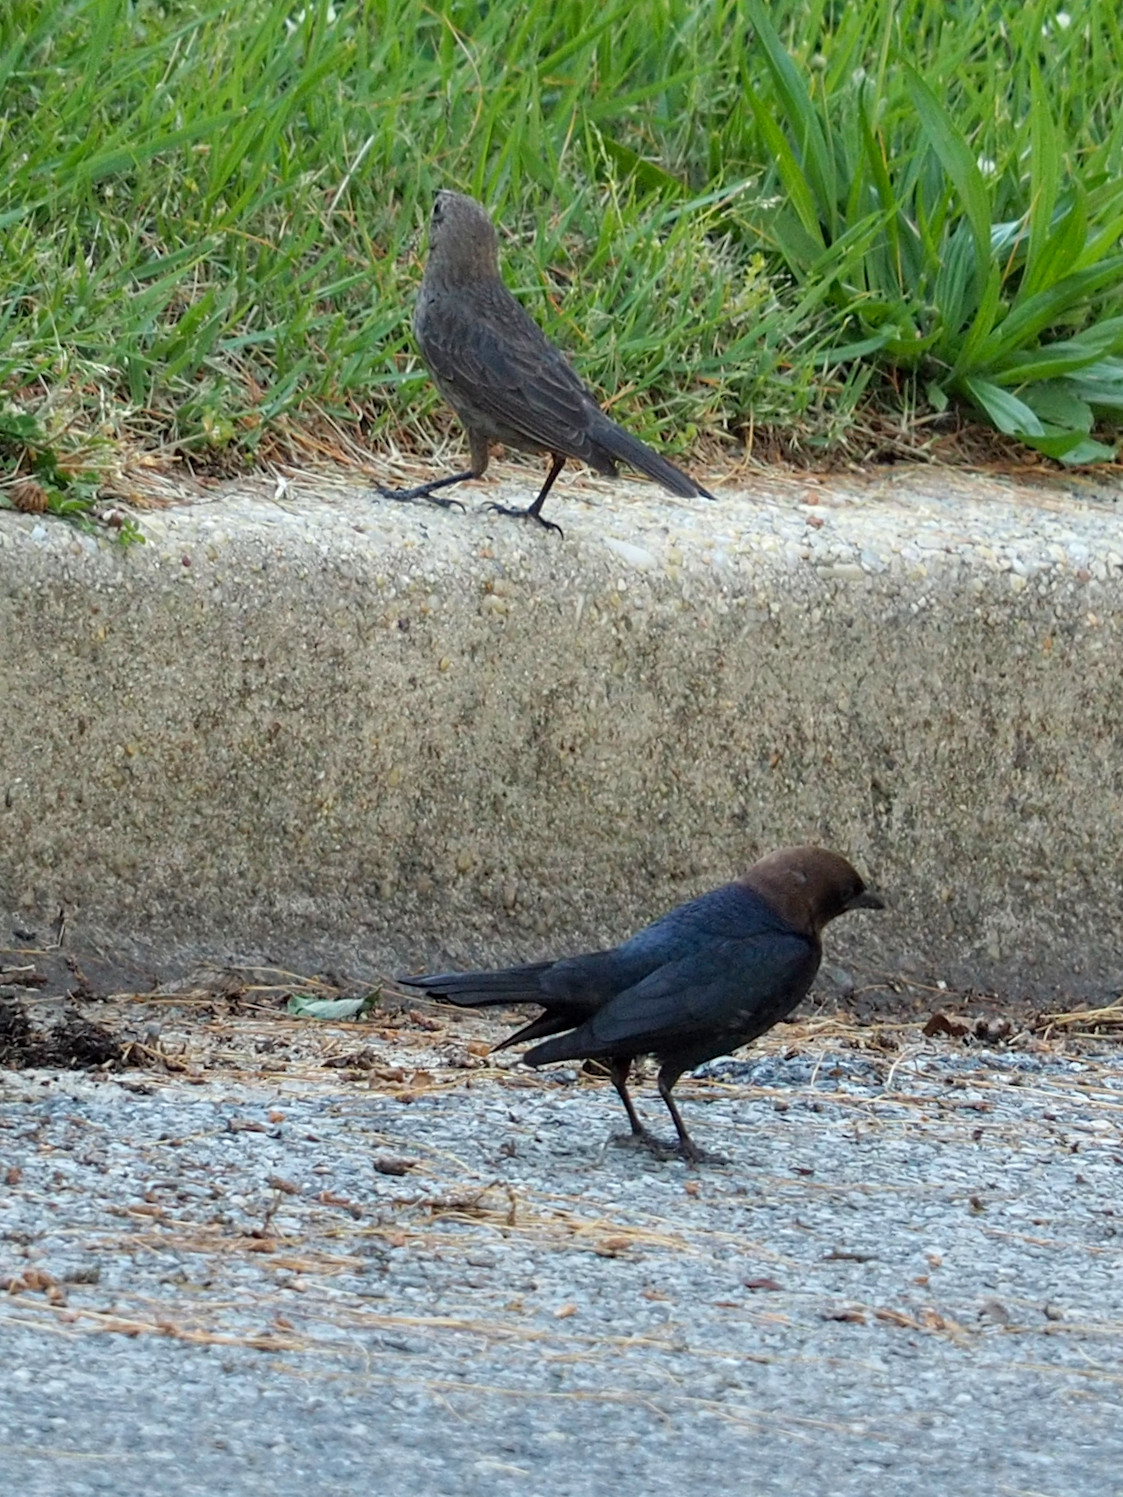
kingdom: Animalia
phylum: Chordata
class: Aves
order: Passeriformes
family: Icteridae
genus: Molothrus
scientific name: Molothrus ater
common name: Brown-headed cowbird
